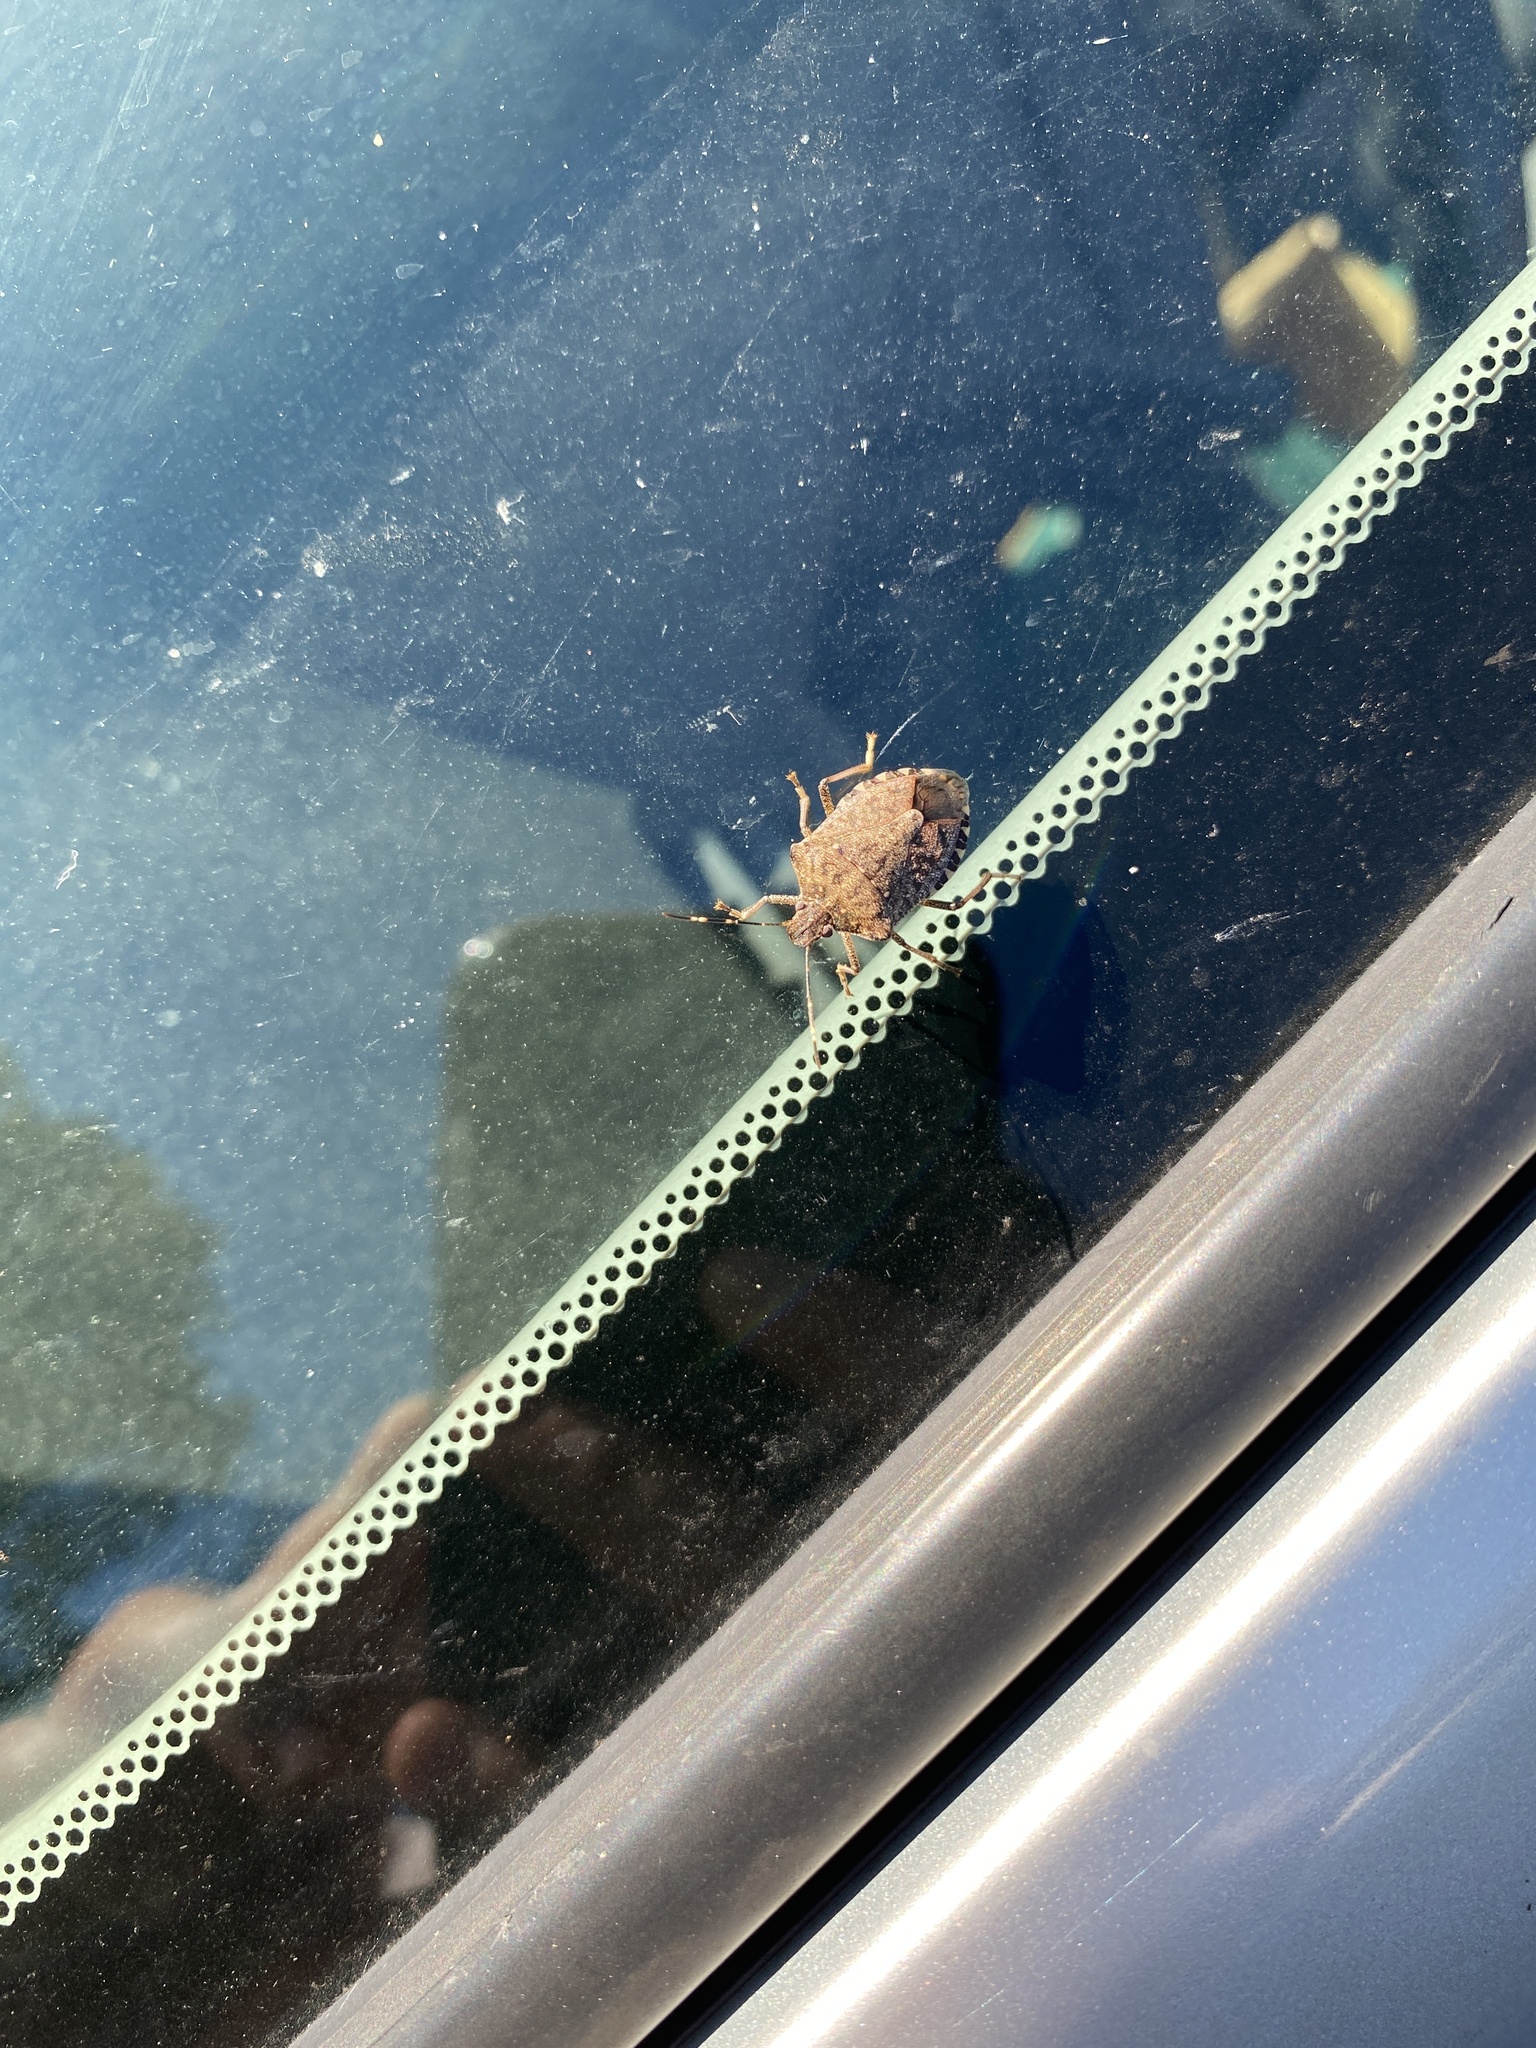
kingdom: Animalia
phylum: Arthropoda
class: Insecta
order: Hemiptera
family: Pentatomidae
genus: Halyomorpha
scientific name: Halyomorpha halys
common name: Brown marmorated stink bug
